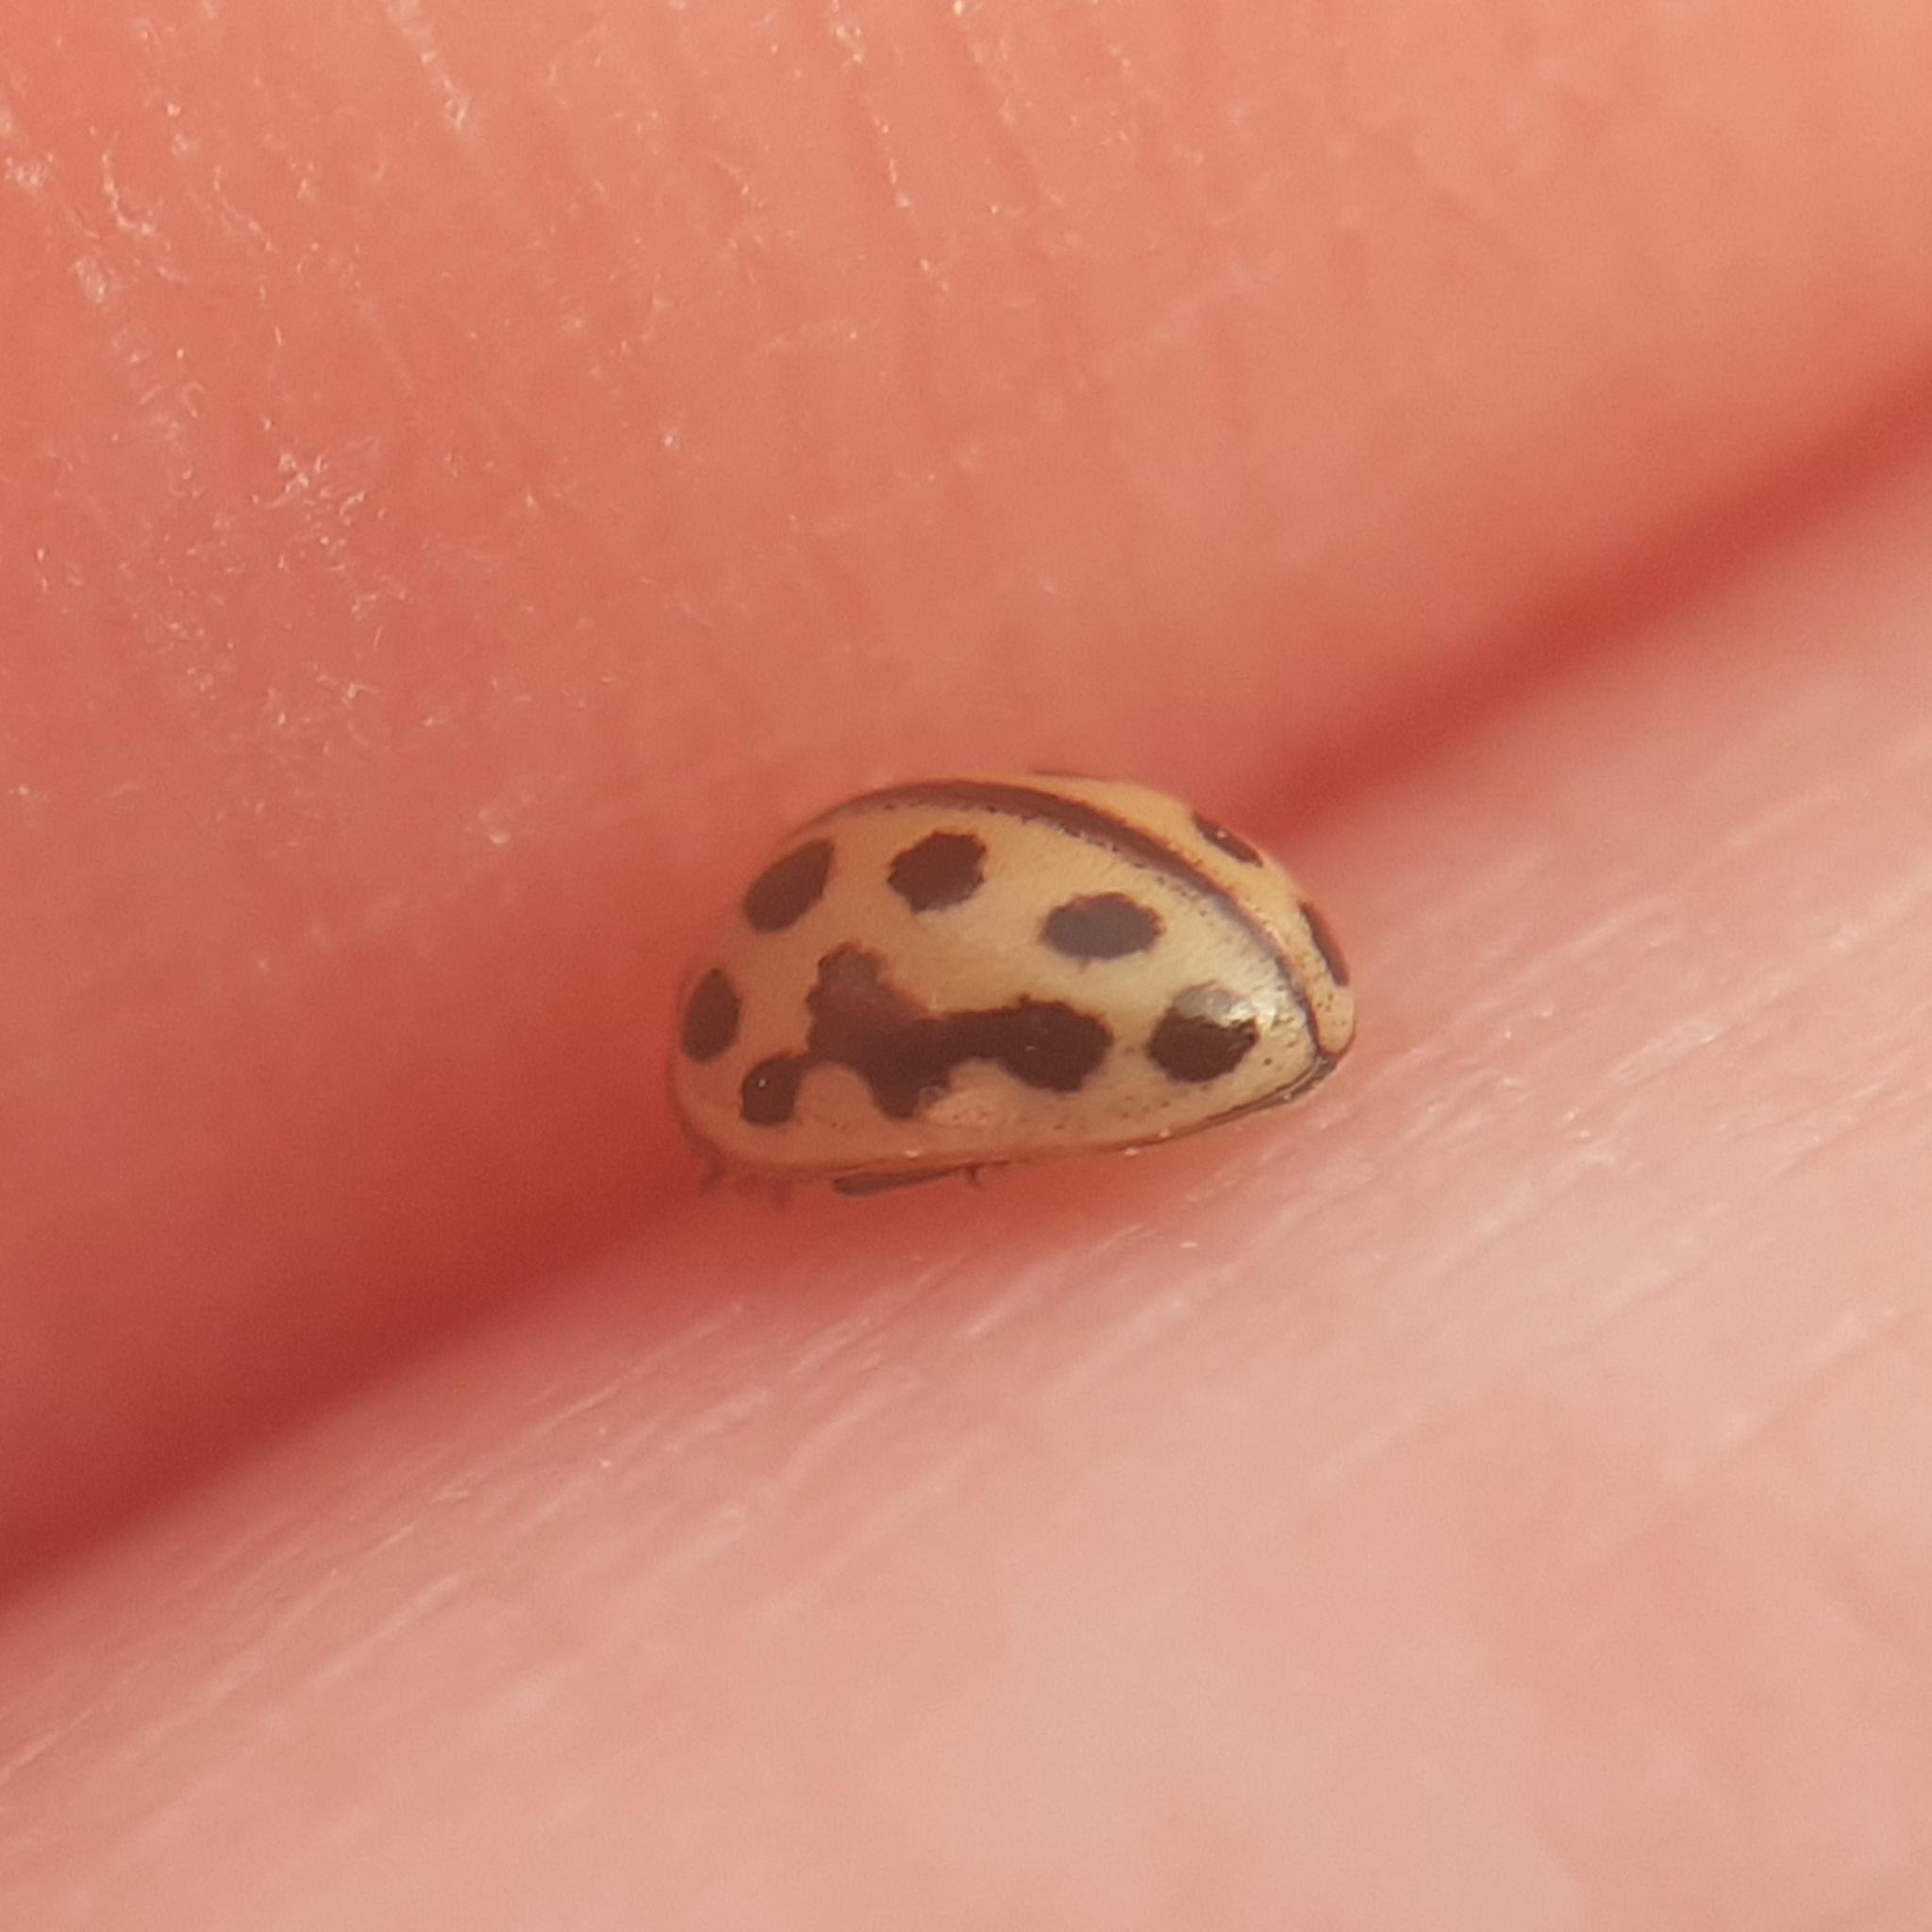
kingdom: Animalia
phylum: Arthropoda
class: Insecta
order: Coleoptera
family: Coccinellidae
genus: Tytthaspis
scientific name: Tytthaspis sedecimpunctata
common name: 16-spot ladybird
